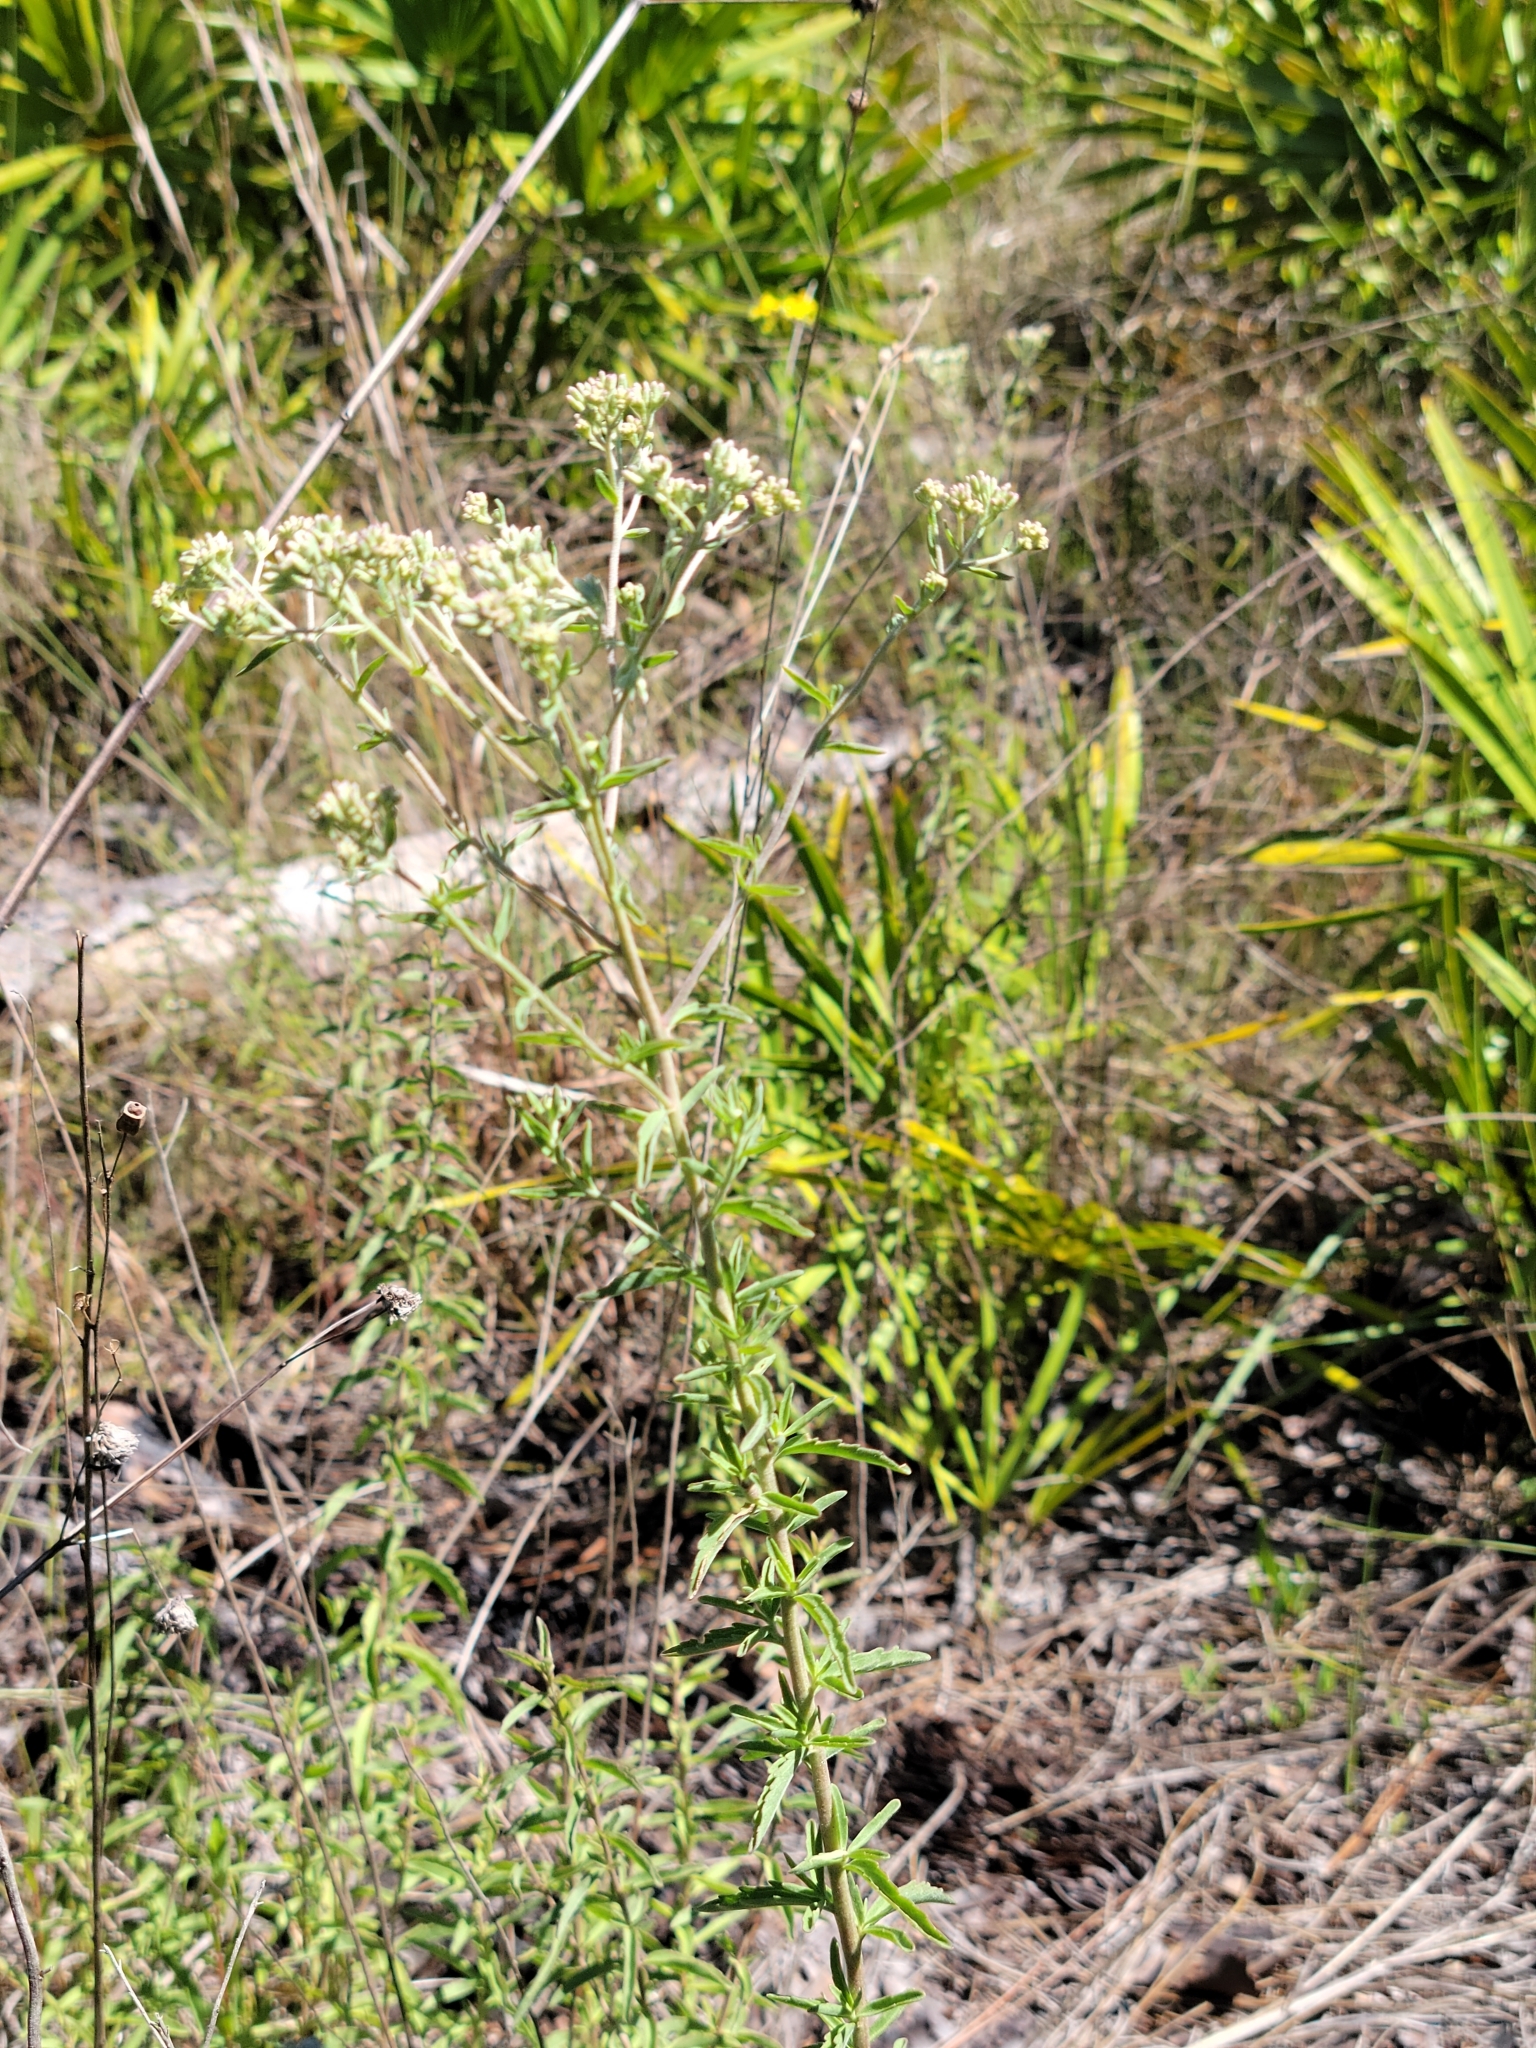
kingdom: Plantae
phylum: Tracheophyta
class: Magnoliopsida
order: Asterales
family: Asteraceae
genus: Eupatorium
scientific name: Eupatorium mohrii
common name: Mohr's thoroughwort
